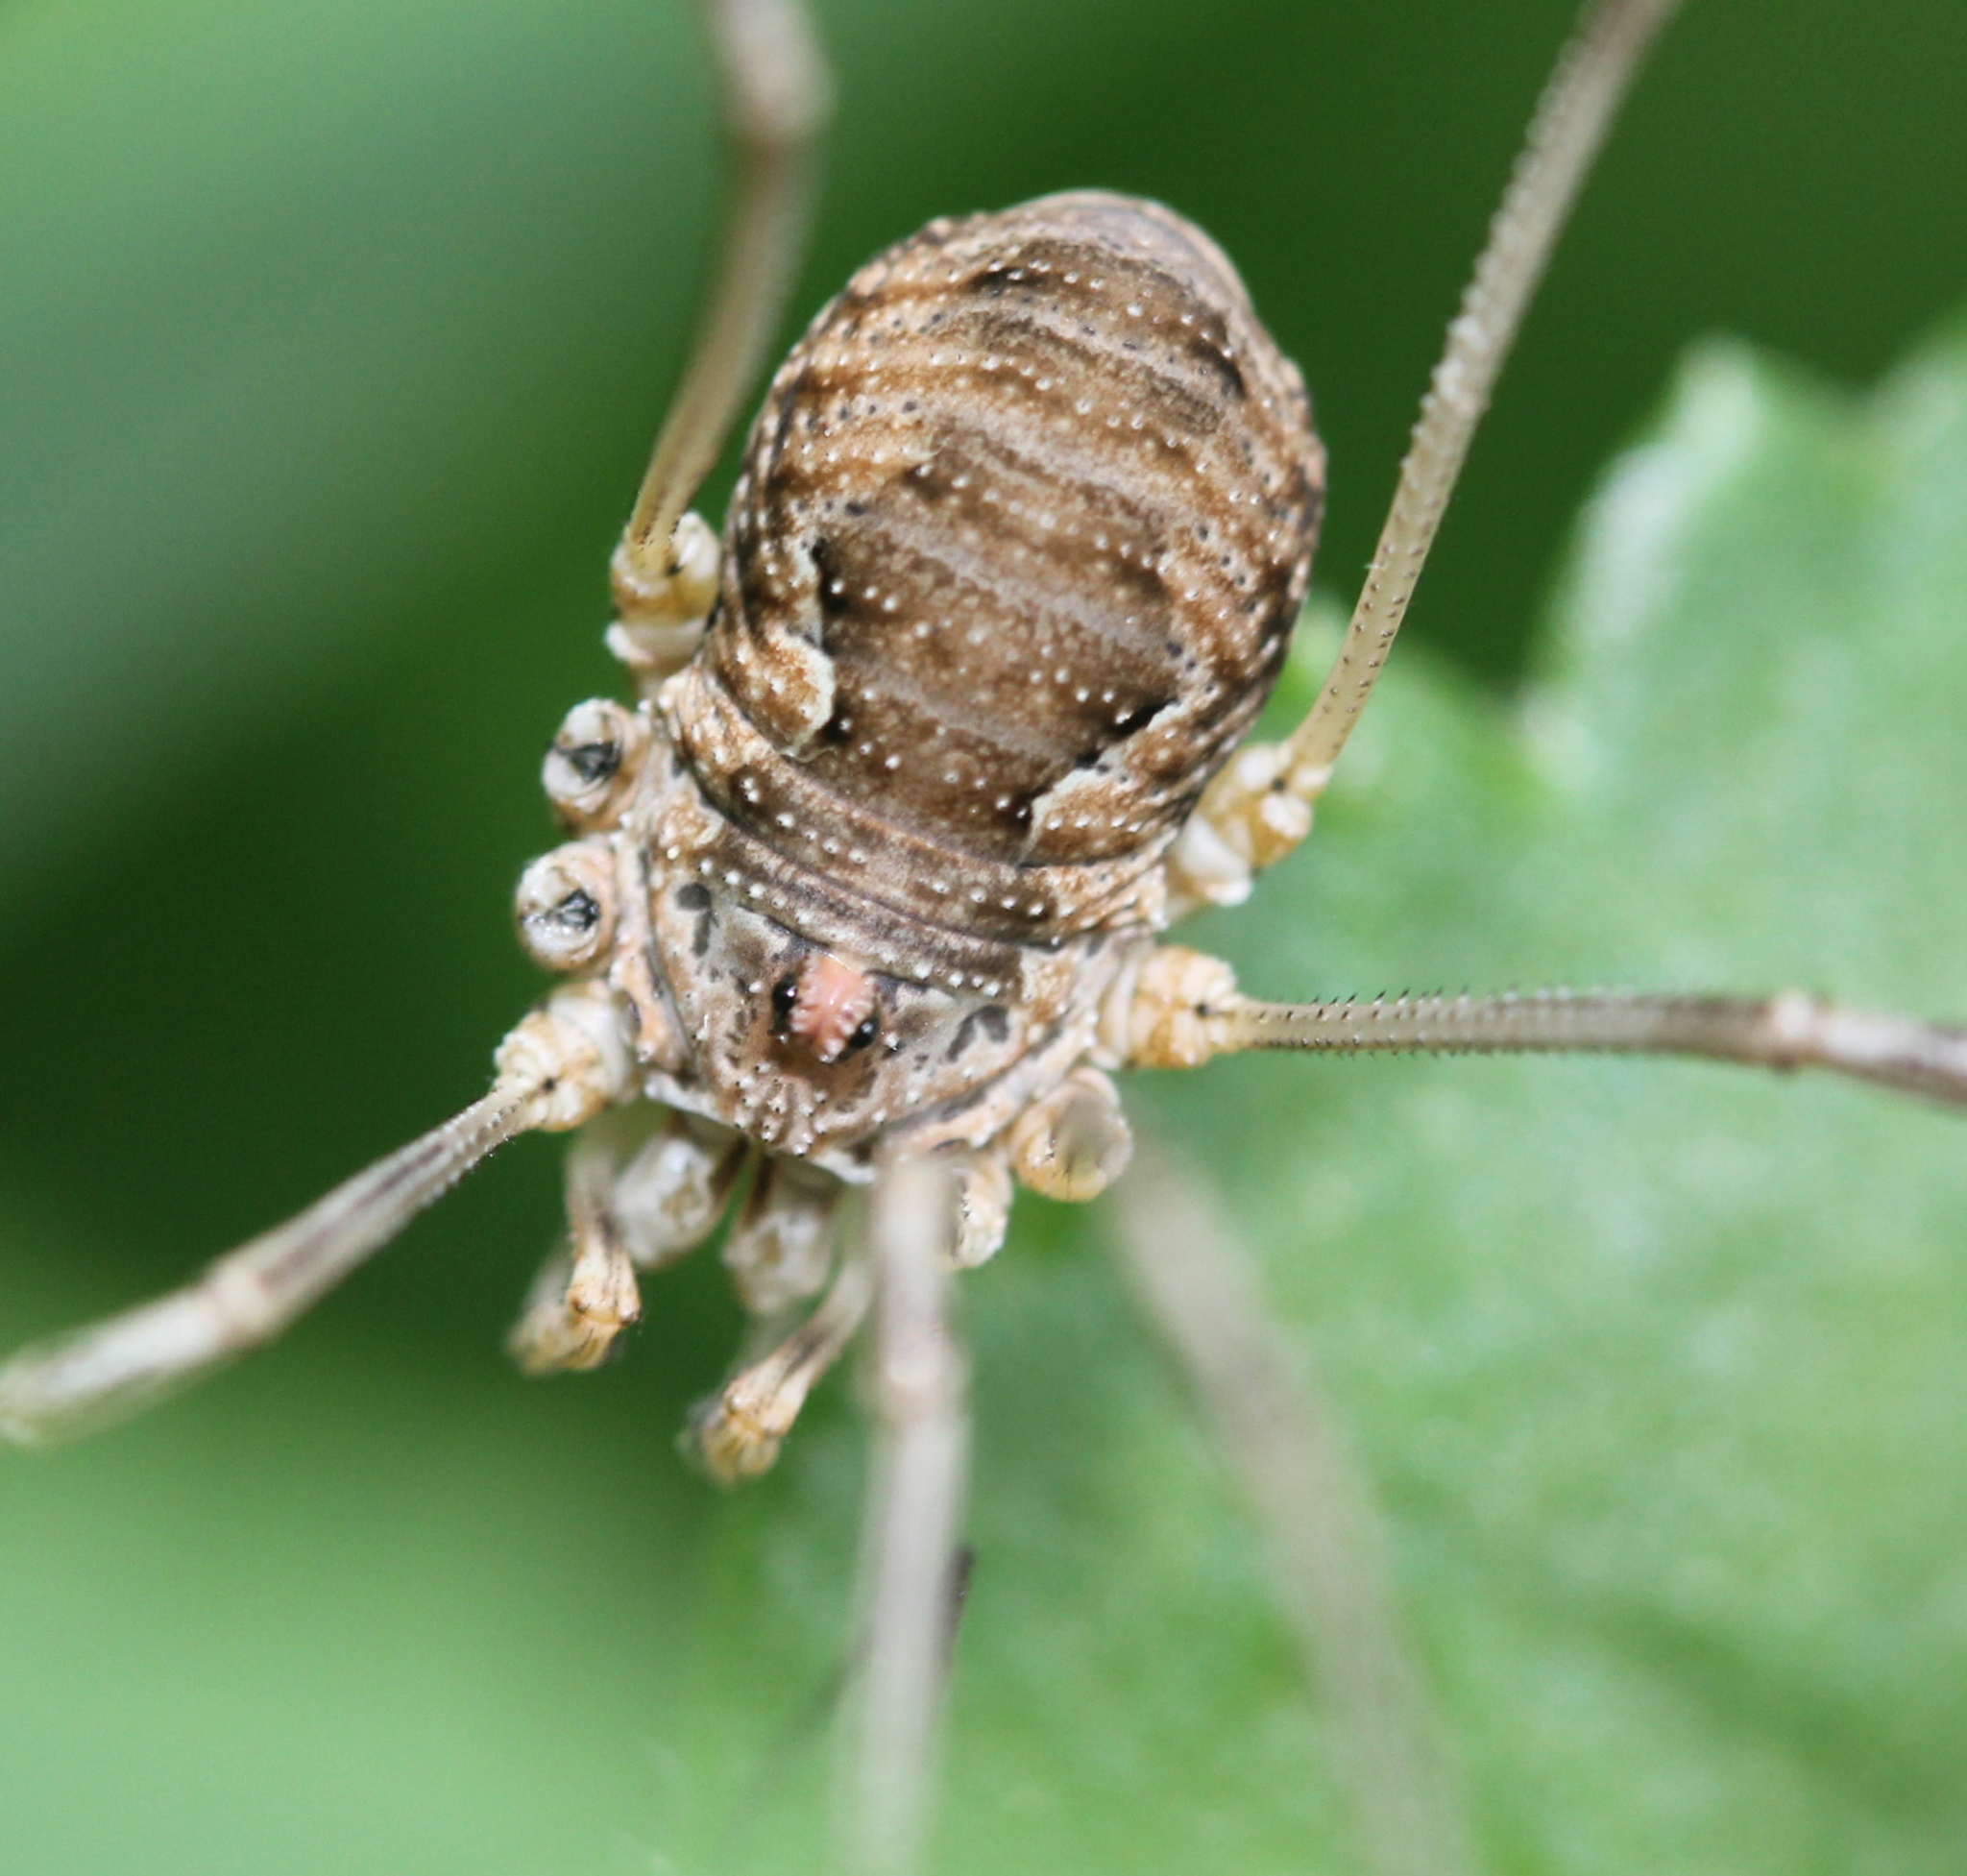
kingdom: Animalia
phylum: Arthropoda
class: Arachnida
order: Opiliones
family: Phalangiidae
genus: Phalangium
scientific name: Phalangium opilio
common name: Daddy longleg
